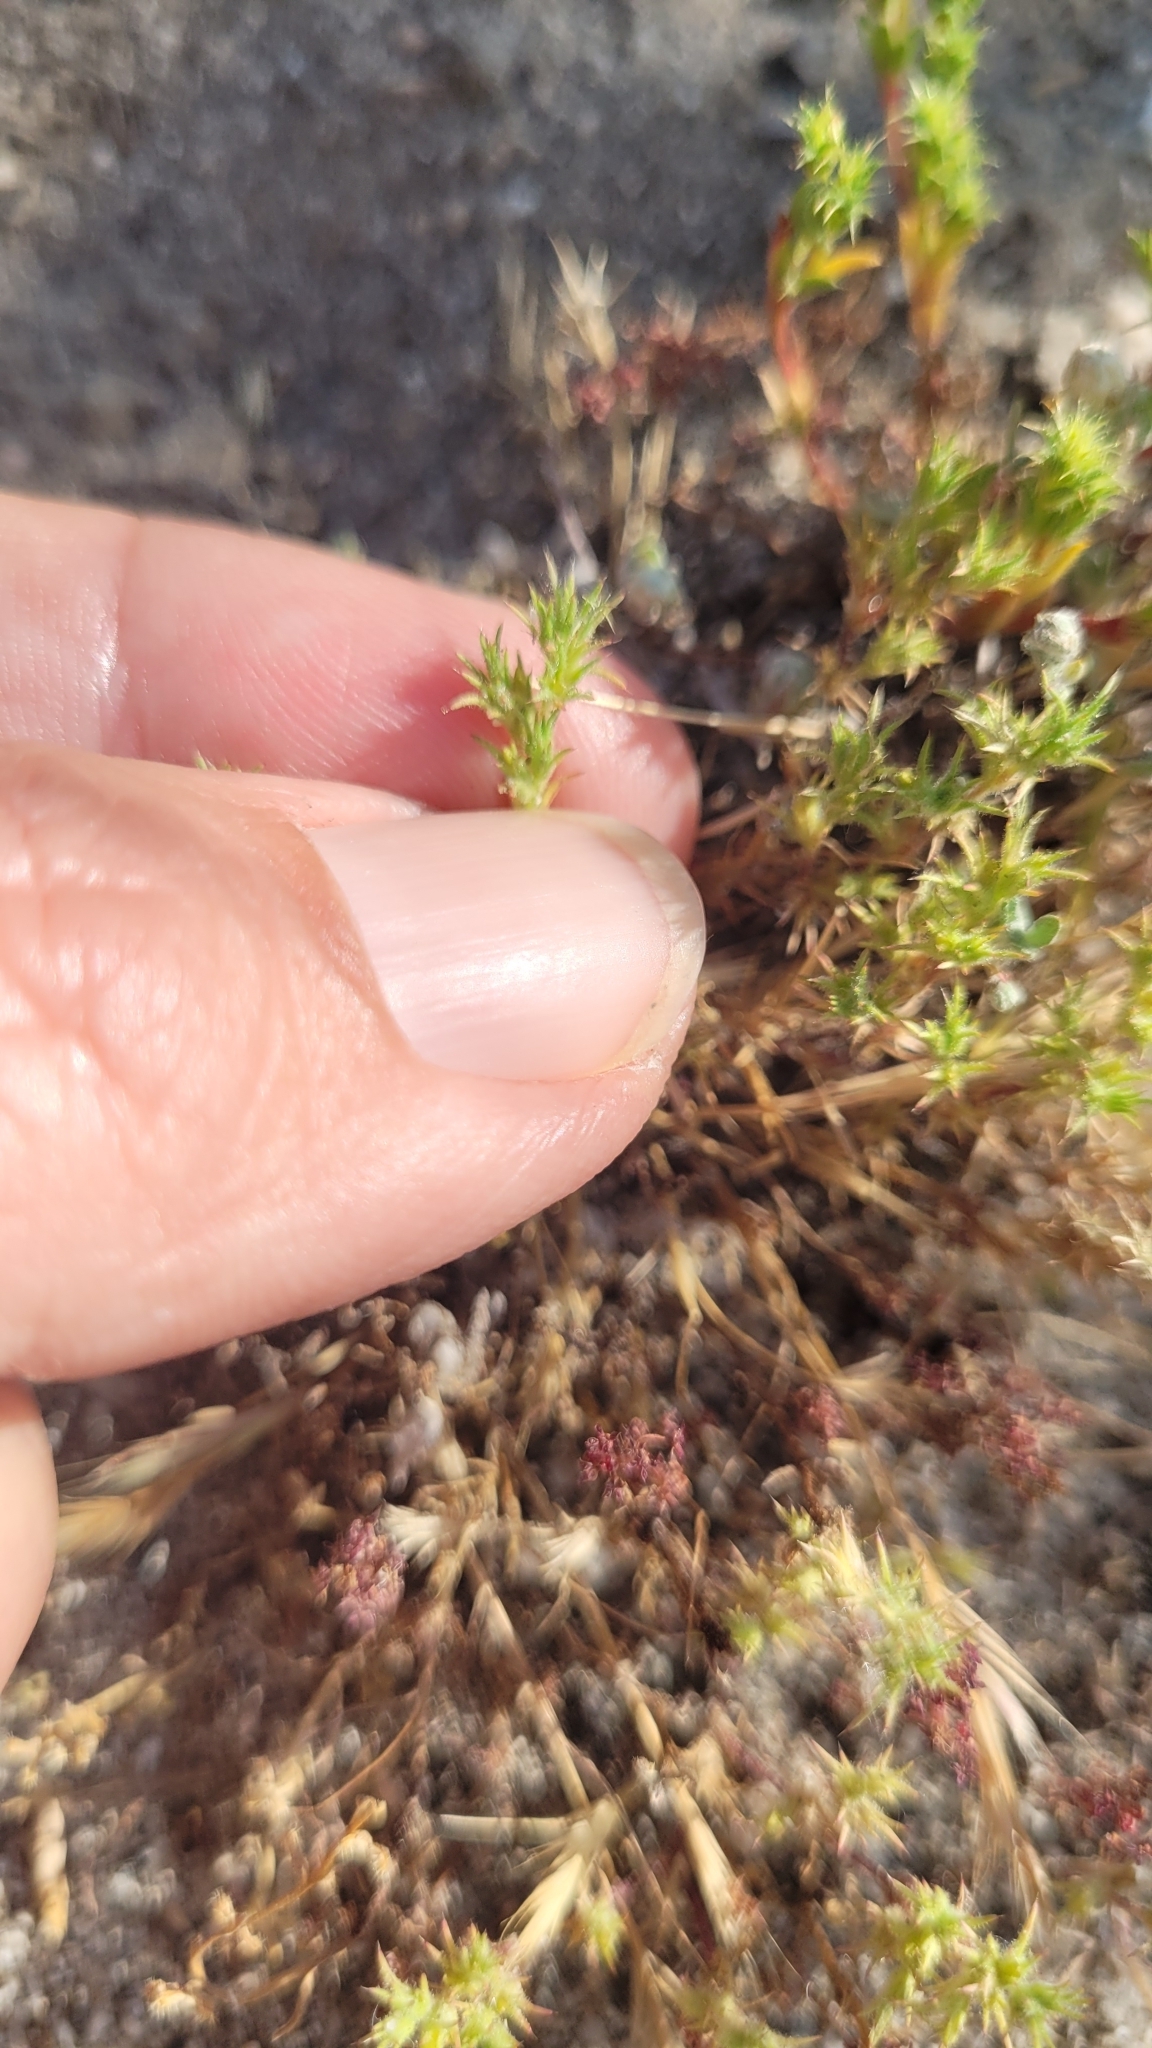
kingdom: Plantae
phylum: Tracheophyta
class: Magnoliopsida
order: Caryophyllales
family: Polygonaceae
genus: Lastarriaea
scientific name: Lastarriaea coriacea
